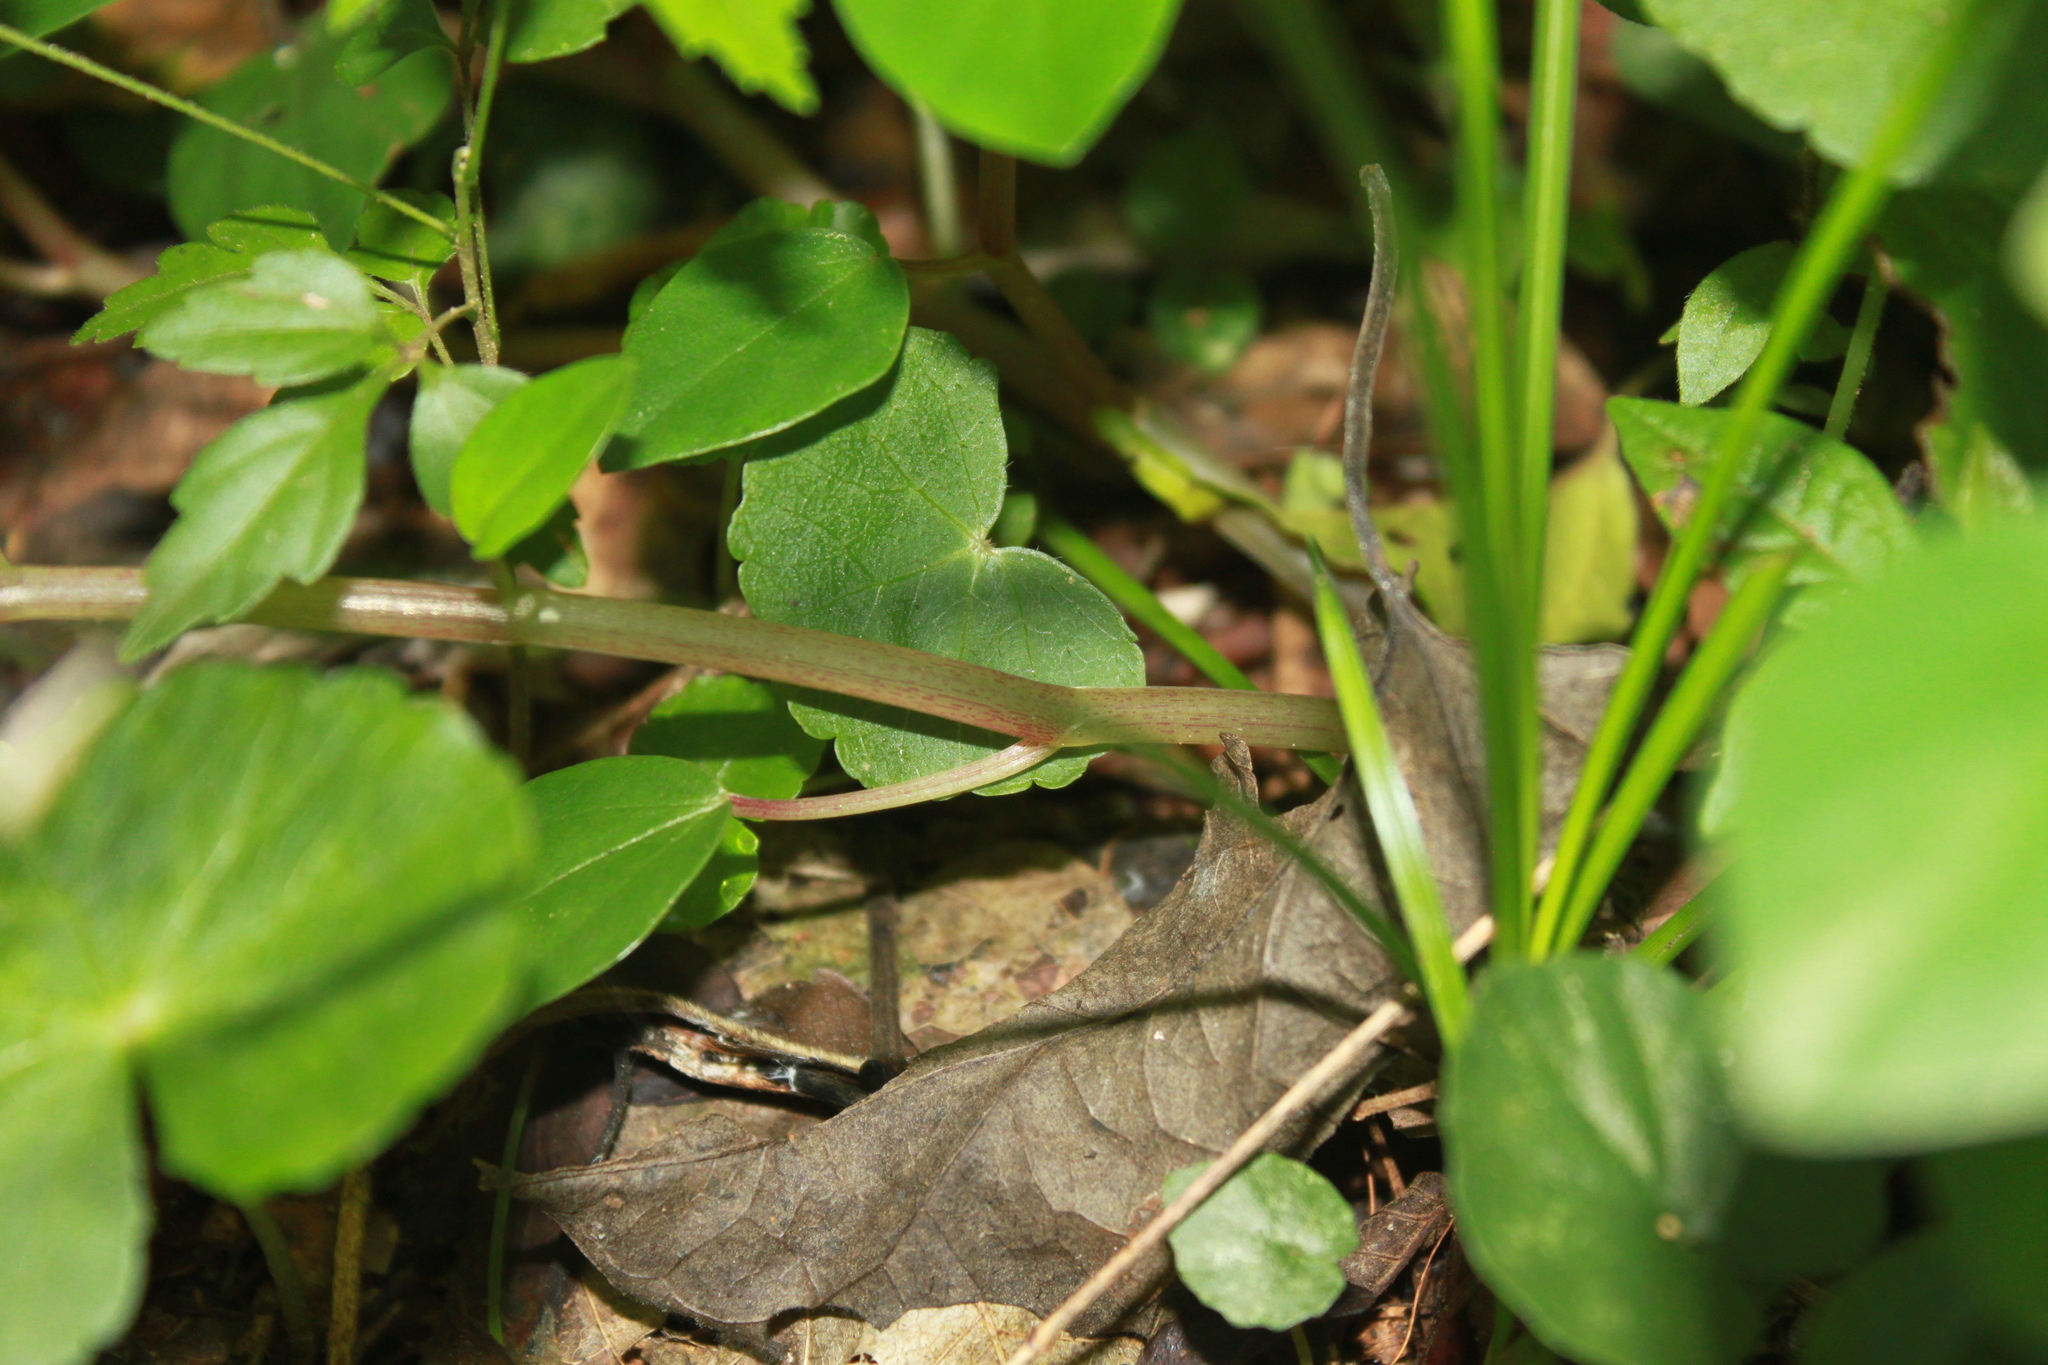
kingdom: Plantae
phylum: Tracheophyta
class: Magnoliopsida
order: Piperales
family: Piperaceae
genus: Peperomia
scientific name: Peperomia barbarana
